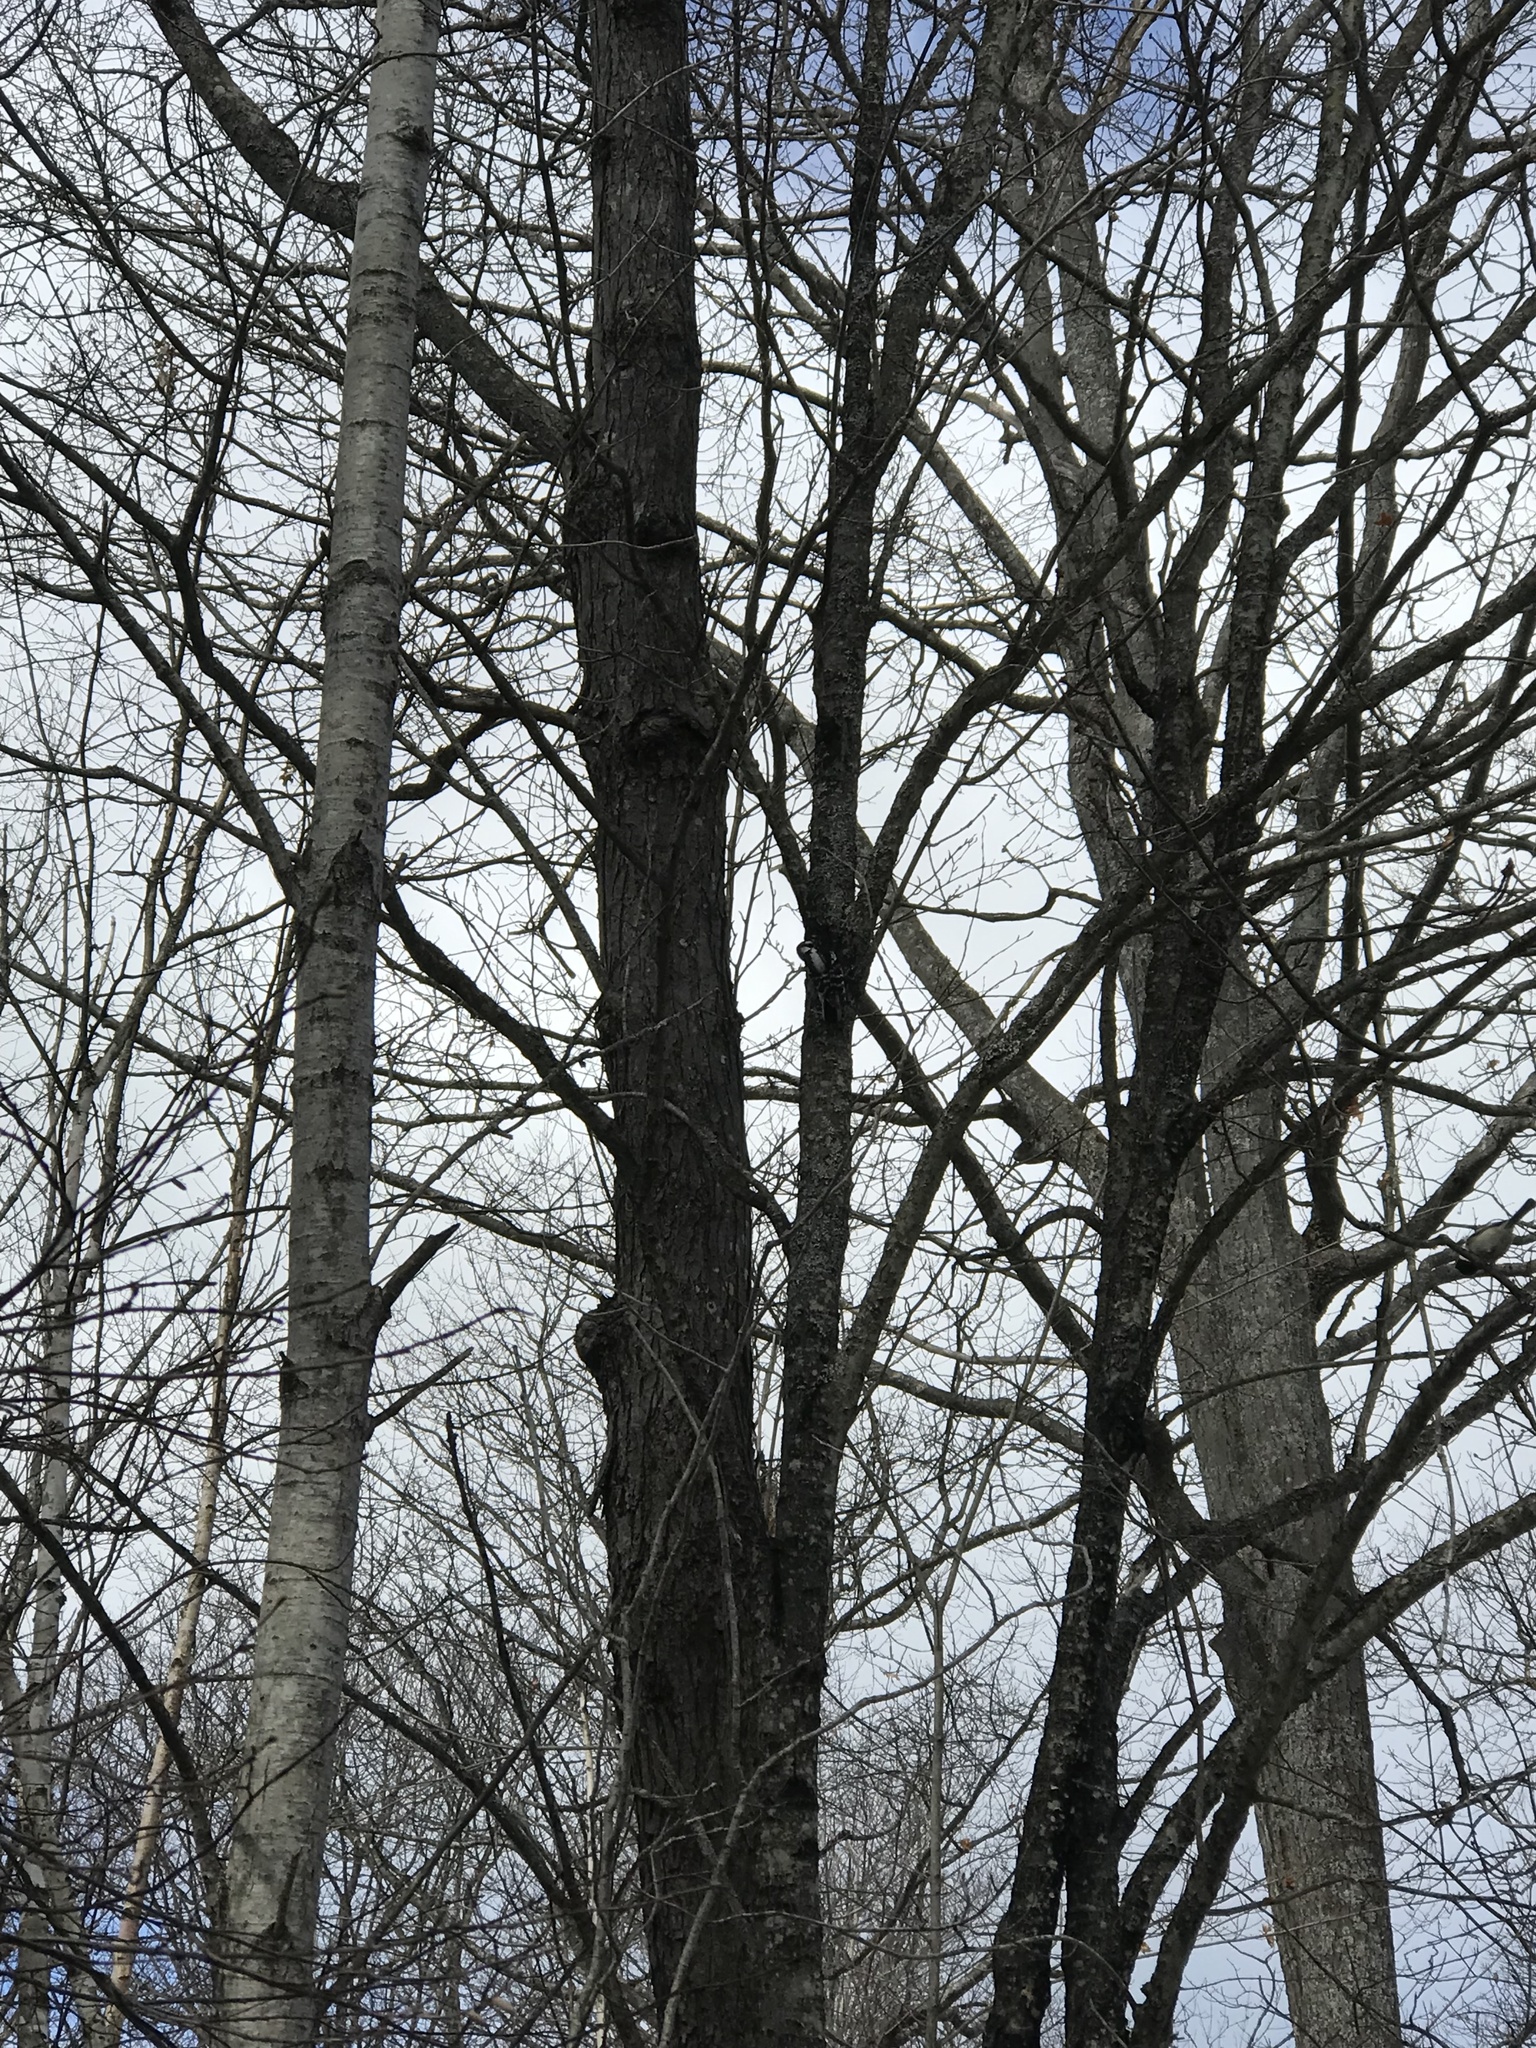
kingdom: Animalia
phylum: Chordata
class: Aves
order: Piciformes
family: Picidae
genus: Dryobates
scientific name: Dryobates pubescens
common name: Downy woodpecker
